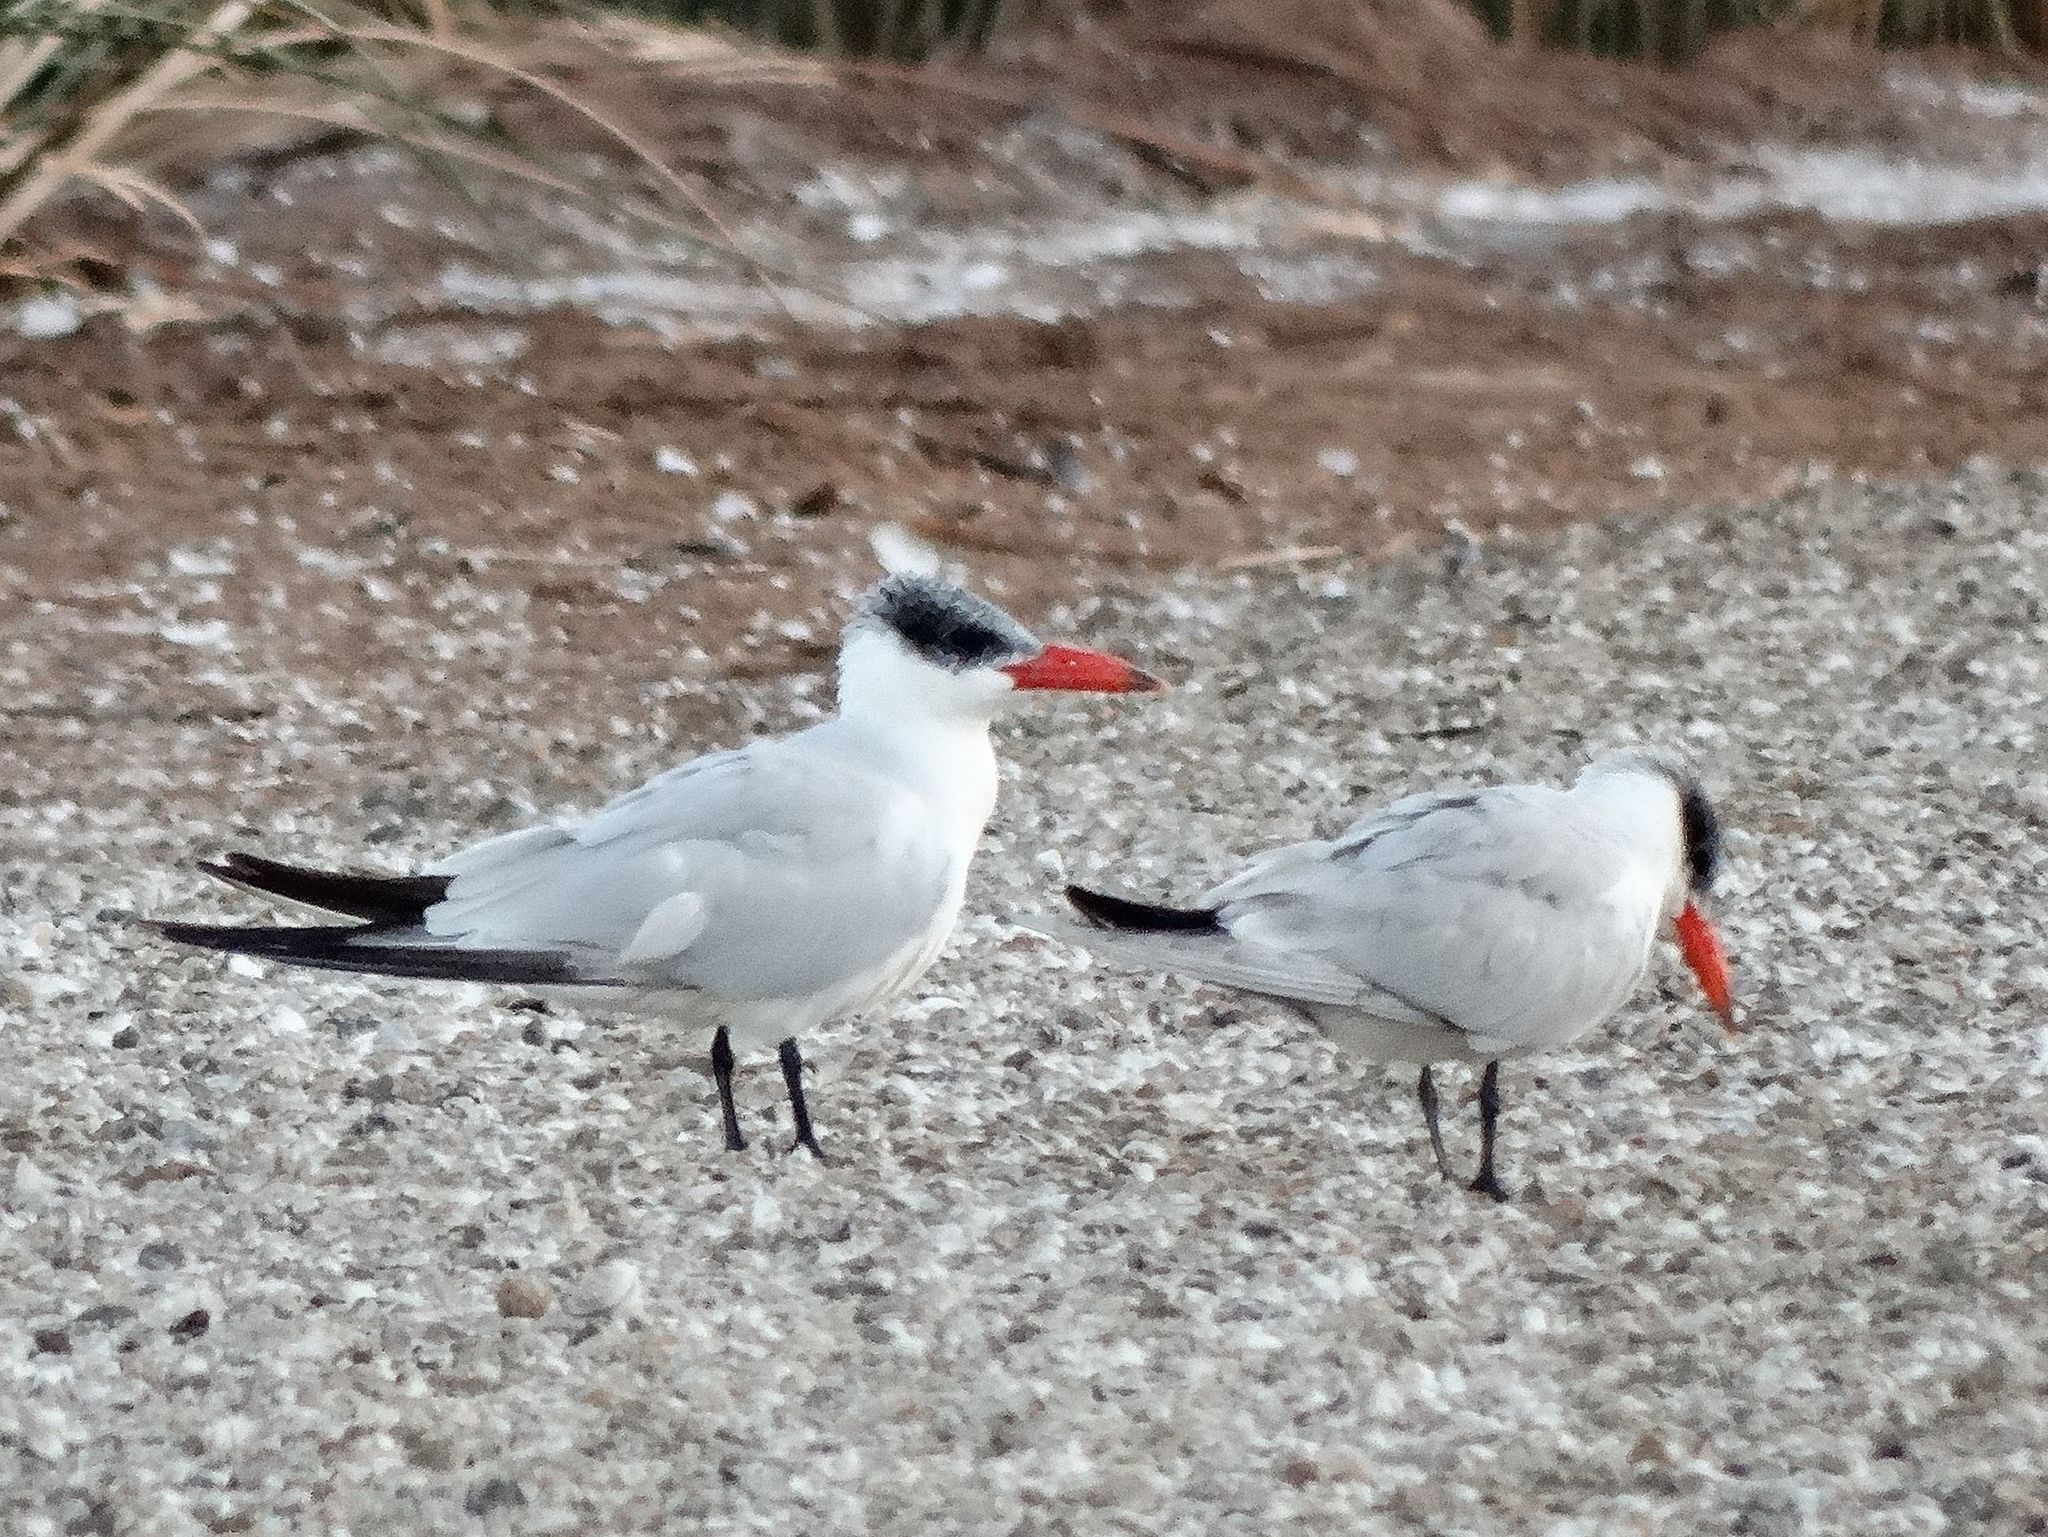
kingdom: Animalia
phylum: Chordata
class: Aves
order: Charadriiformes
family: Laridae
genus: Hydroprogne
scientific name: Hydroprogne caspia
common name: Caspian tern
